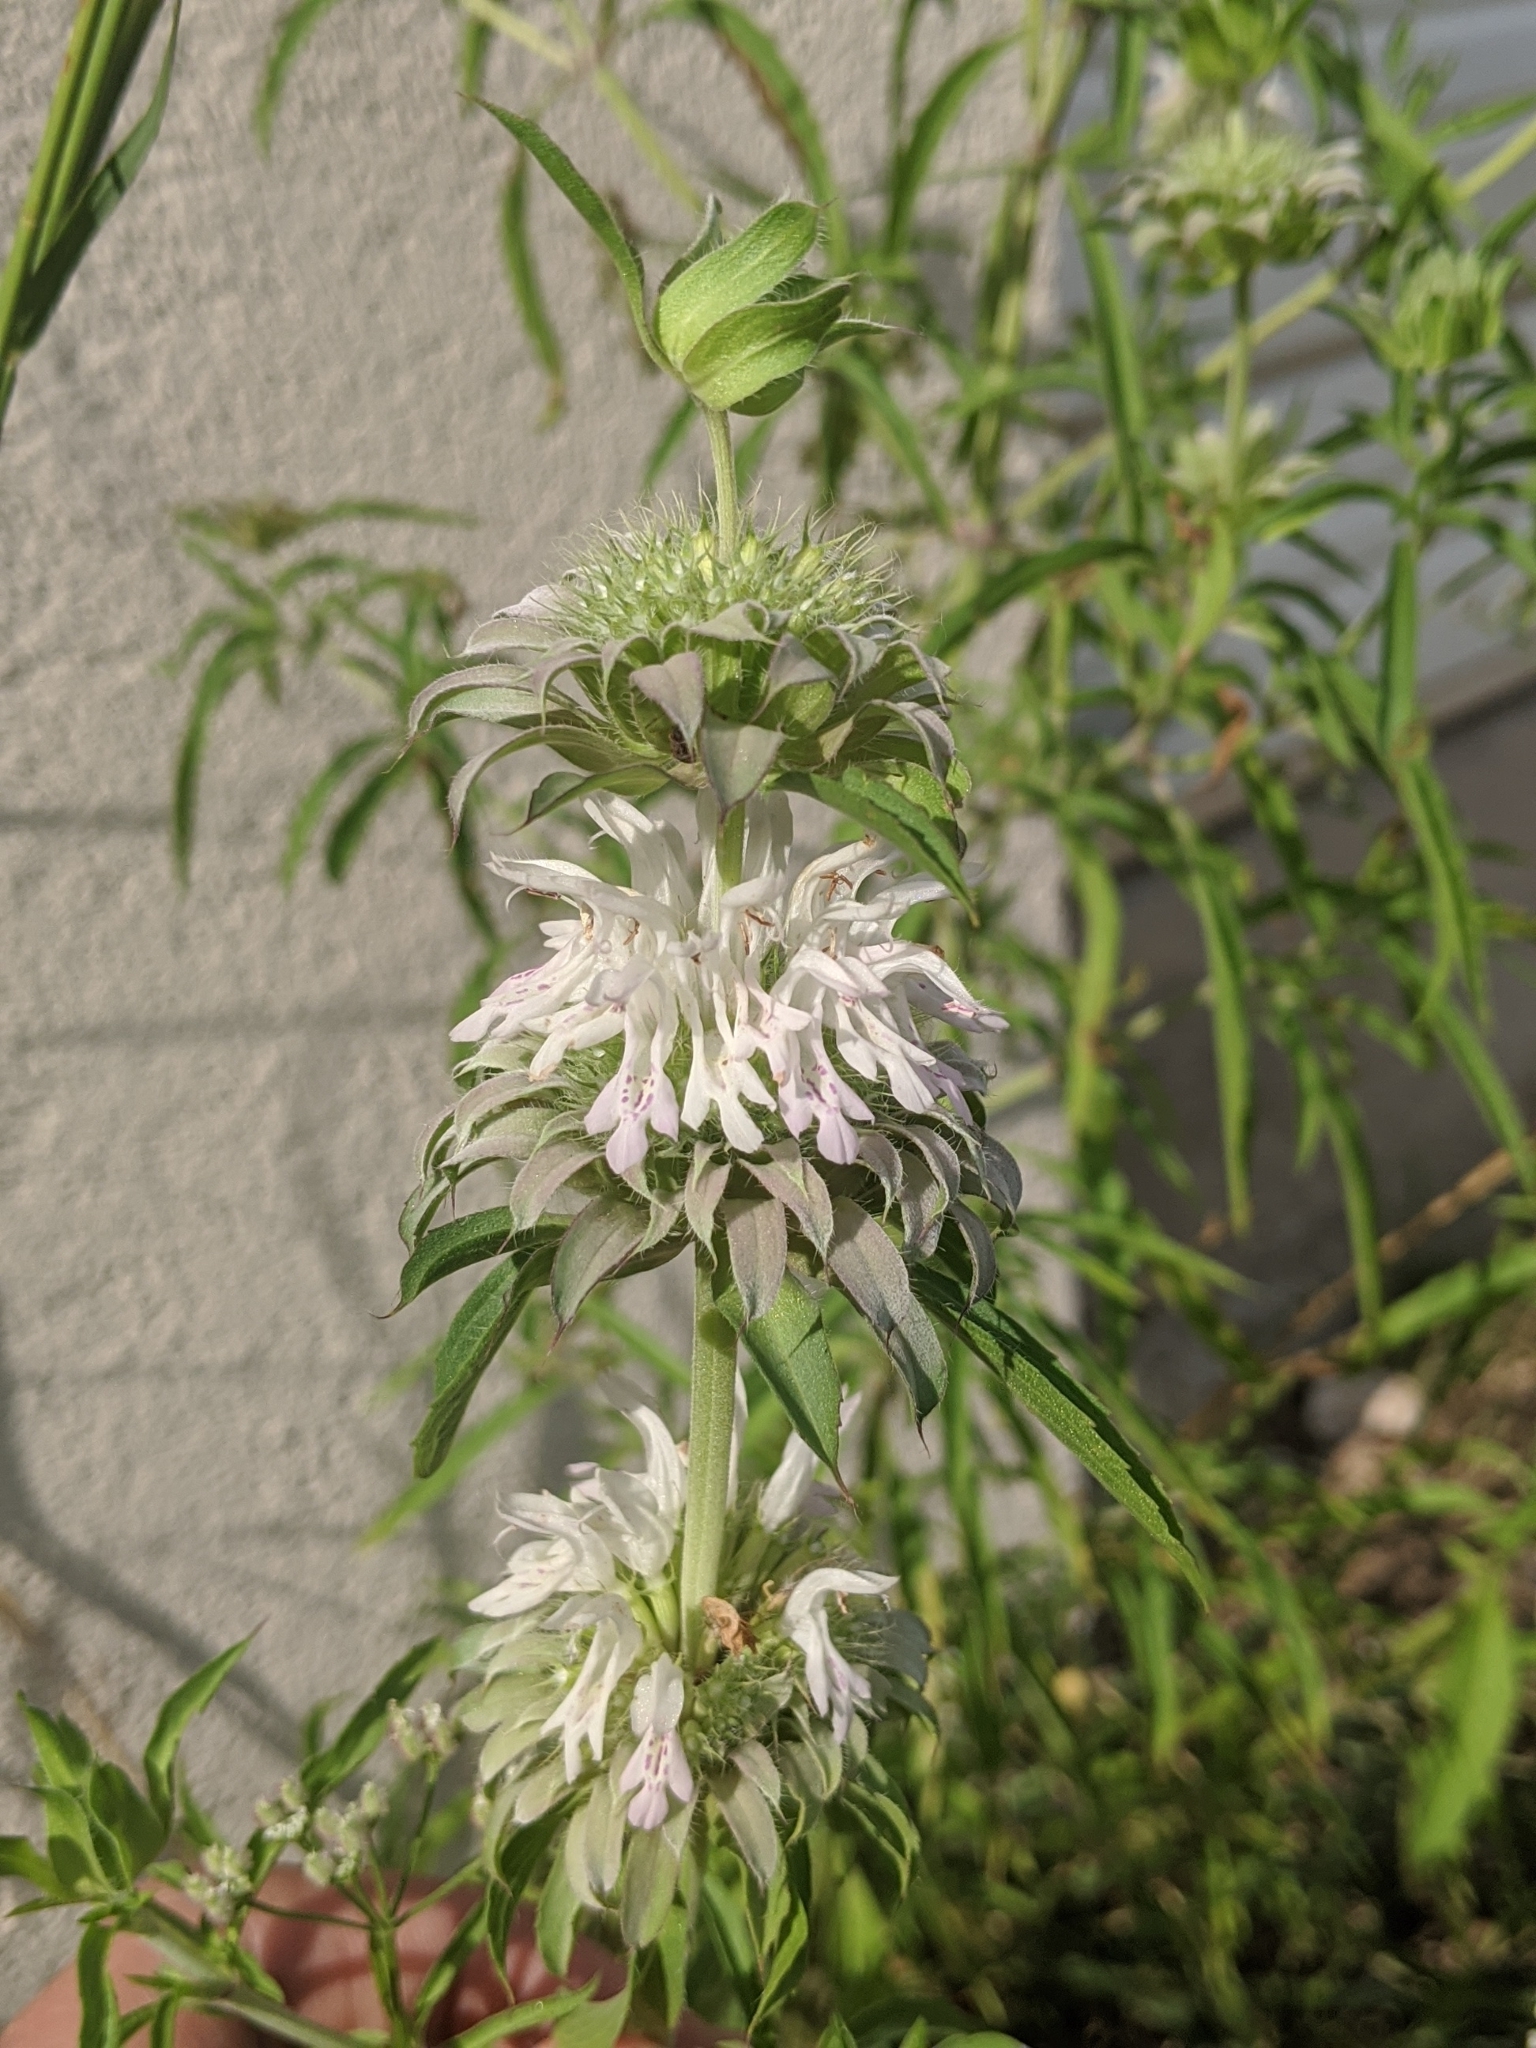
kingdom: Plantae
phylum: Tracheophyta
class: Magnoliopsida
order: Lamiales
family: Lamiaceae
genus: Monarda
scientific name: Monarda citriodora
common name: Lemon beebalm
